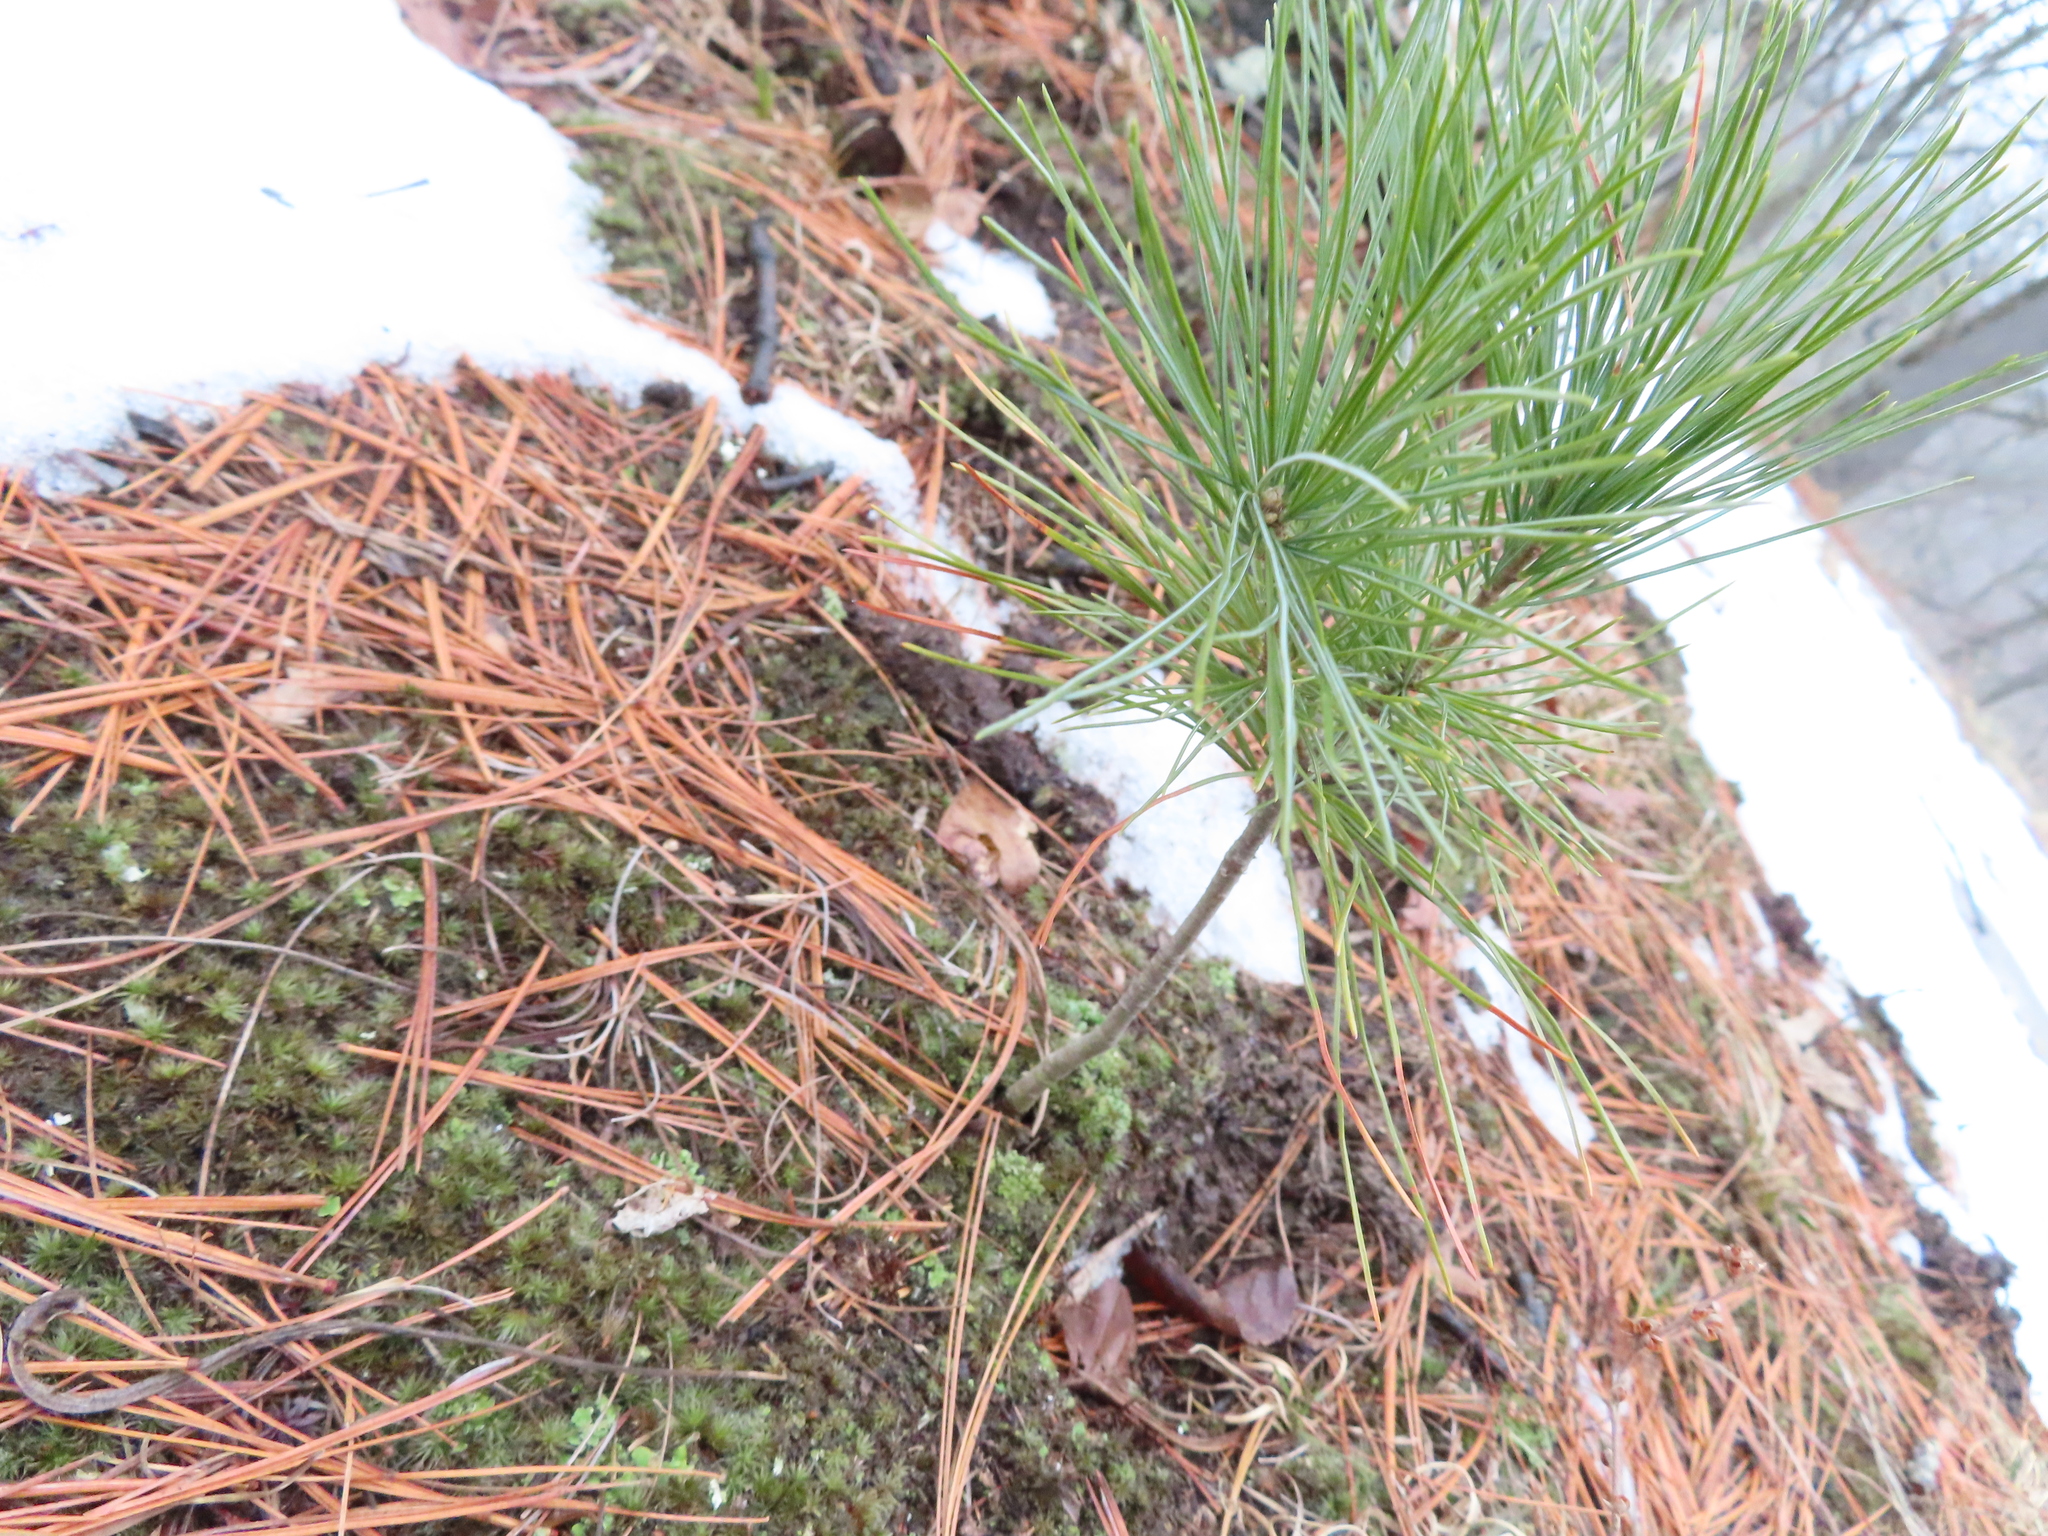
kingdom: Plantae
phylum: Tracheophyta
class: Pinopsida
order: Pinales
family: Pinaceae
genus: Pinus
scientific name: Pinus strobus
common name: Weymouth pine
